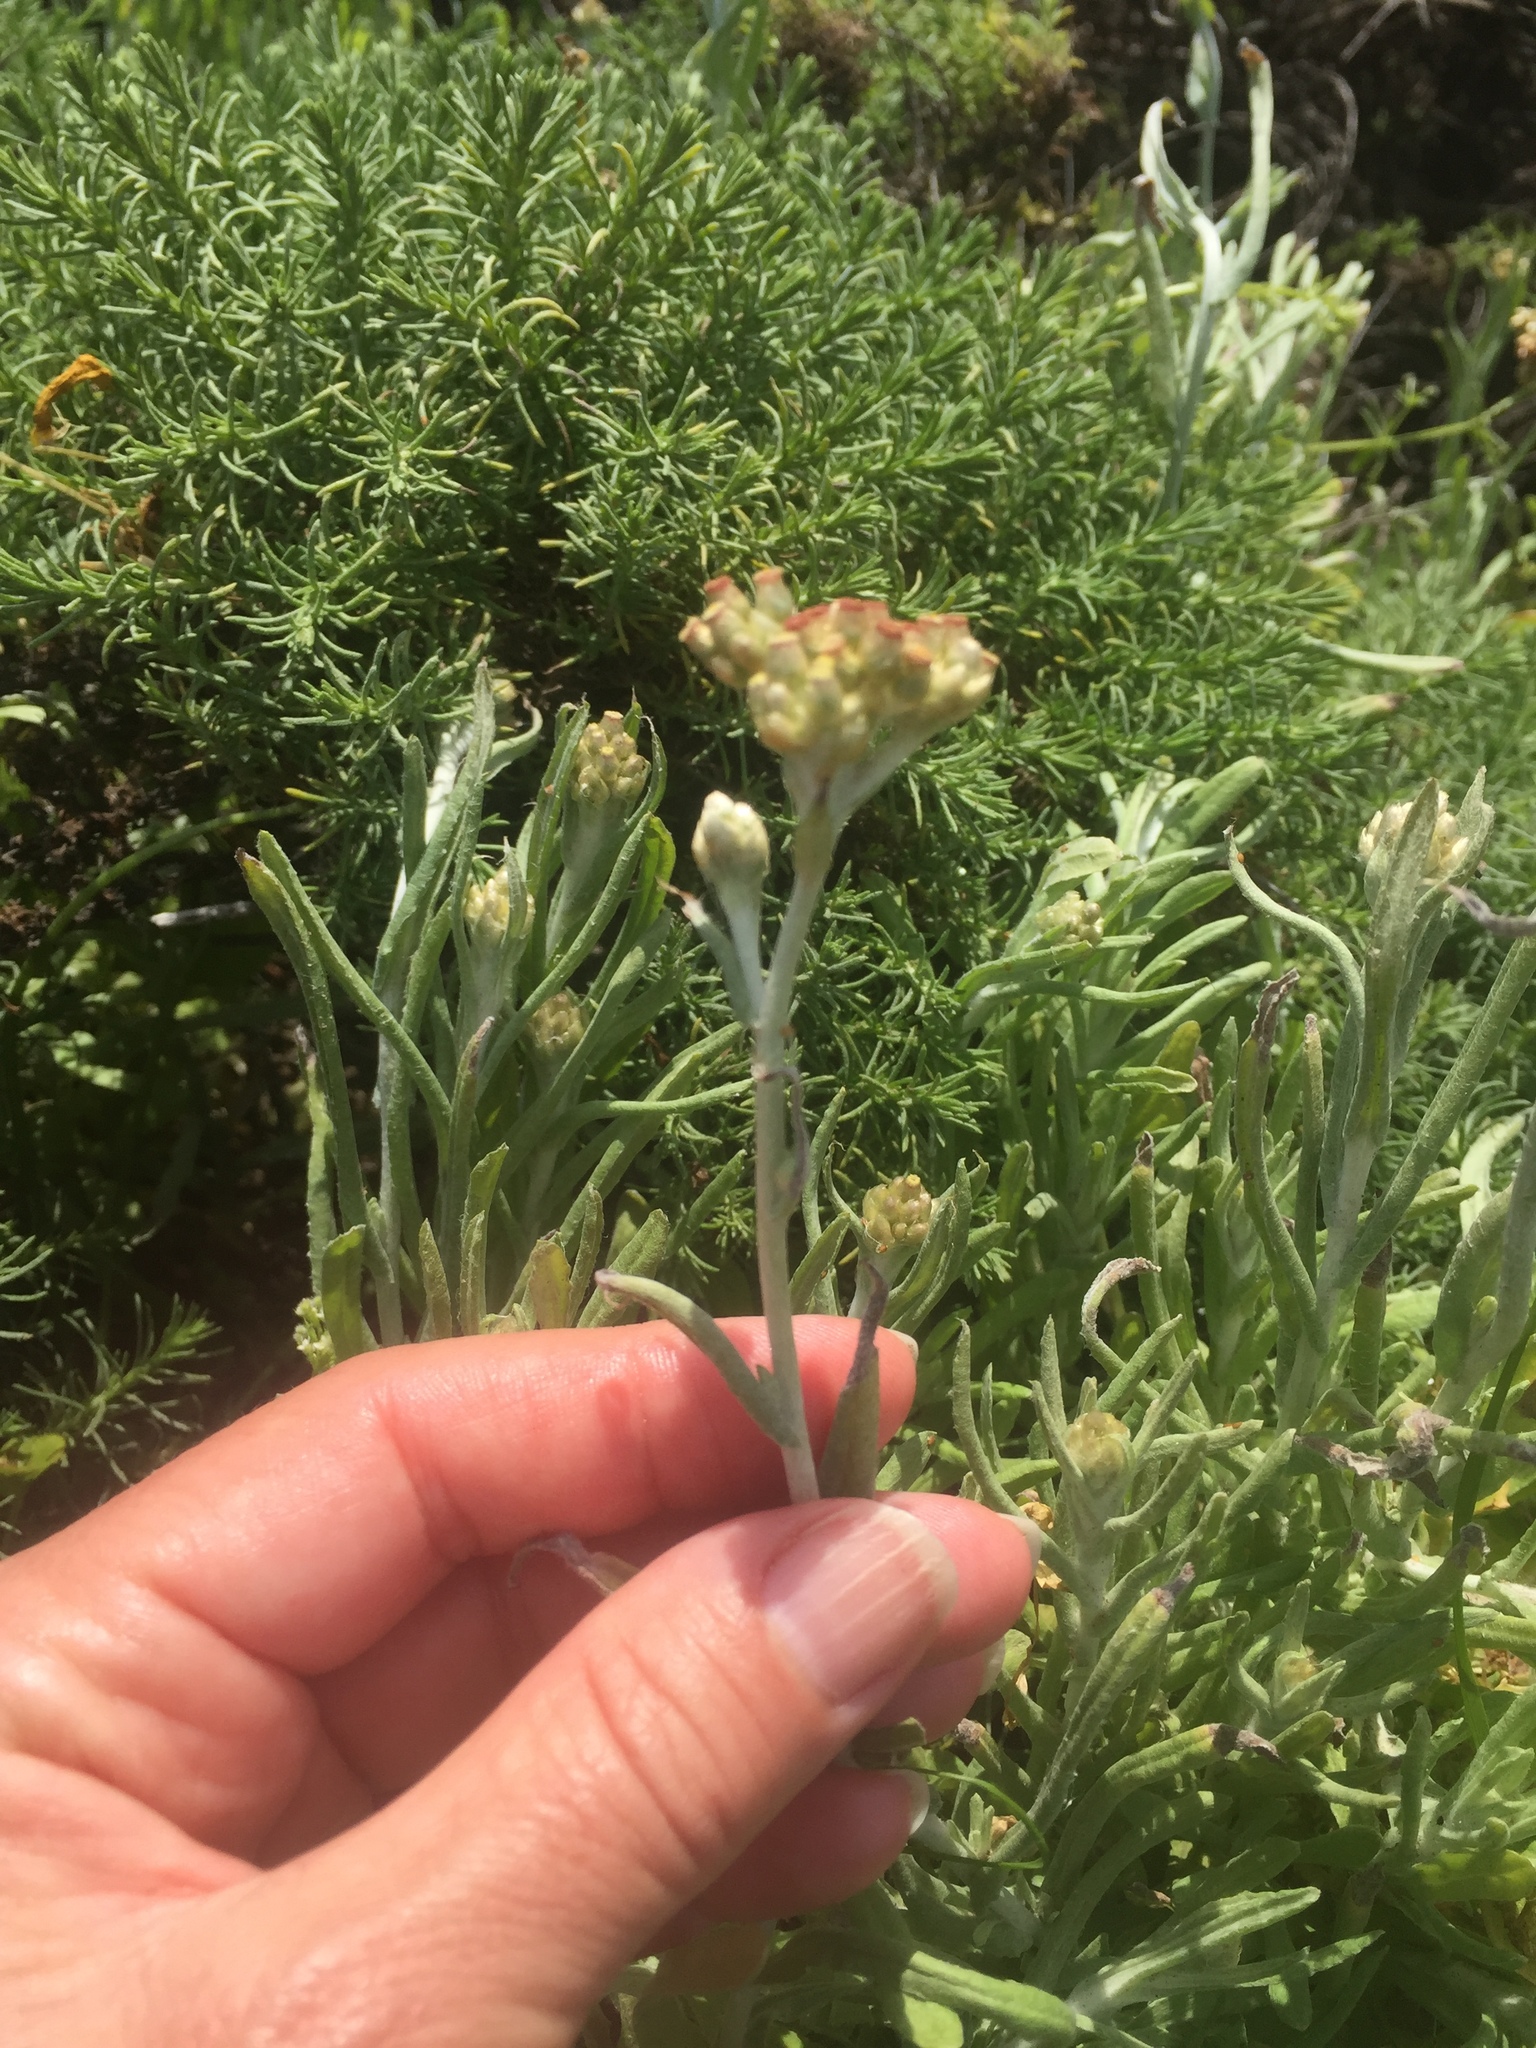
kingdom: Plantae
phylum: Tracheophyta
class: Magnoliopsida
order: Asterales
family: Asteraceae
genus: Helichrysum
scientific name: Helichrysum luteoalbum
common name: Daisy
